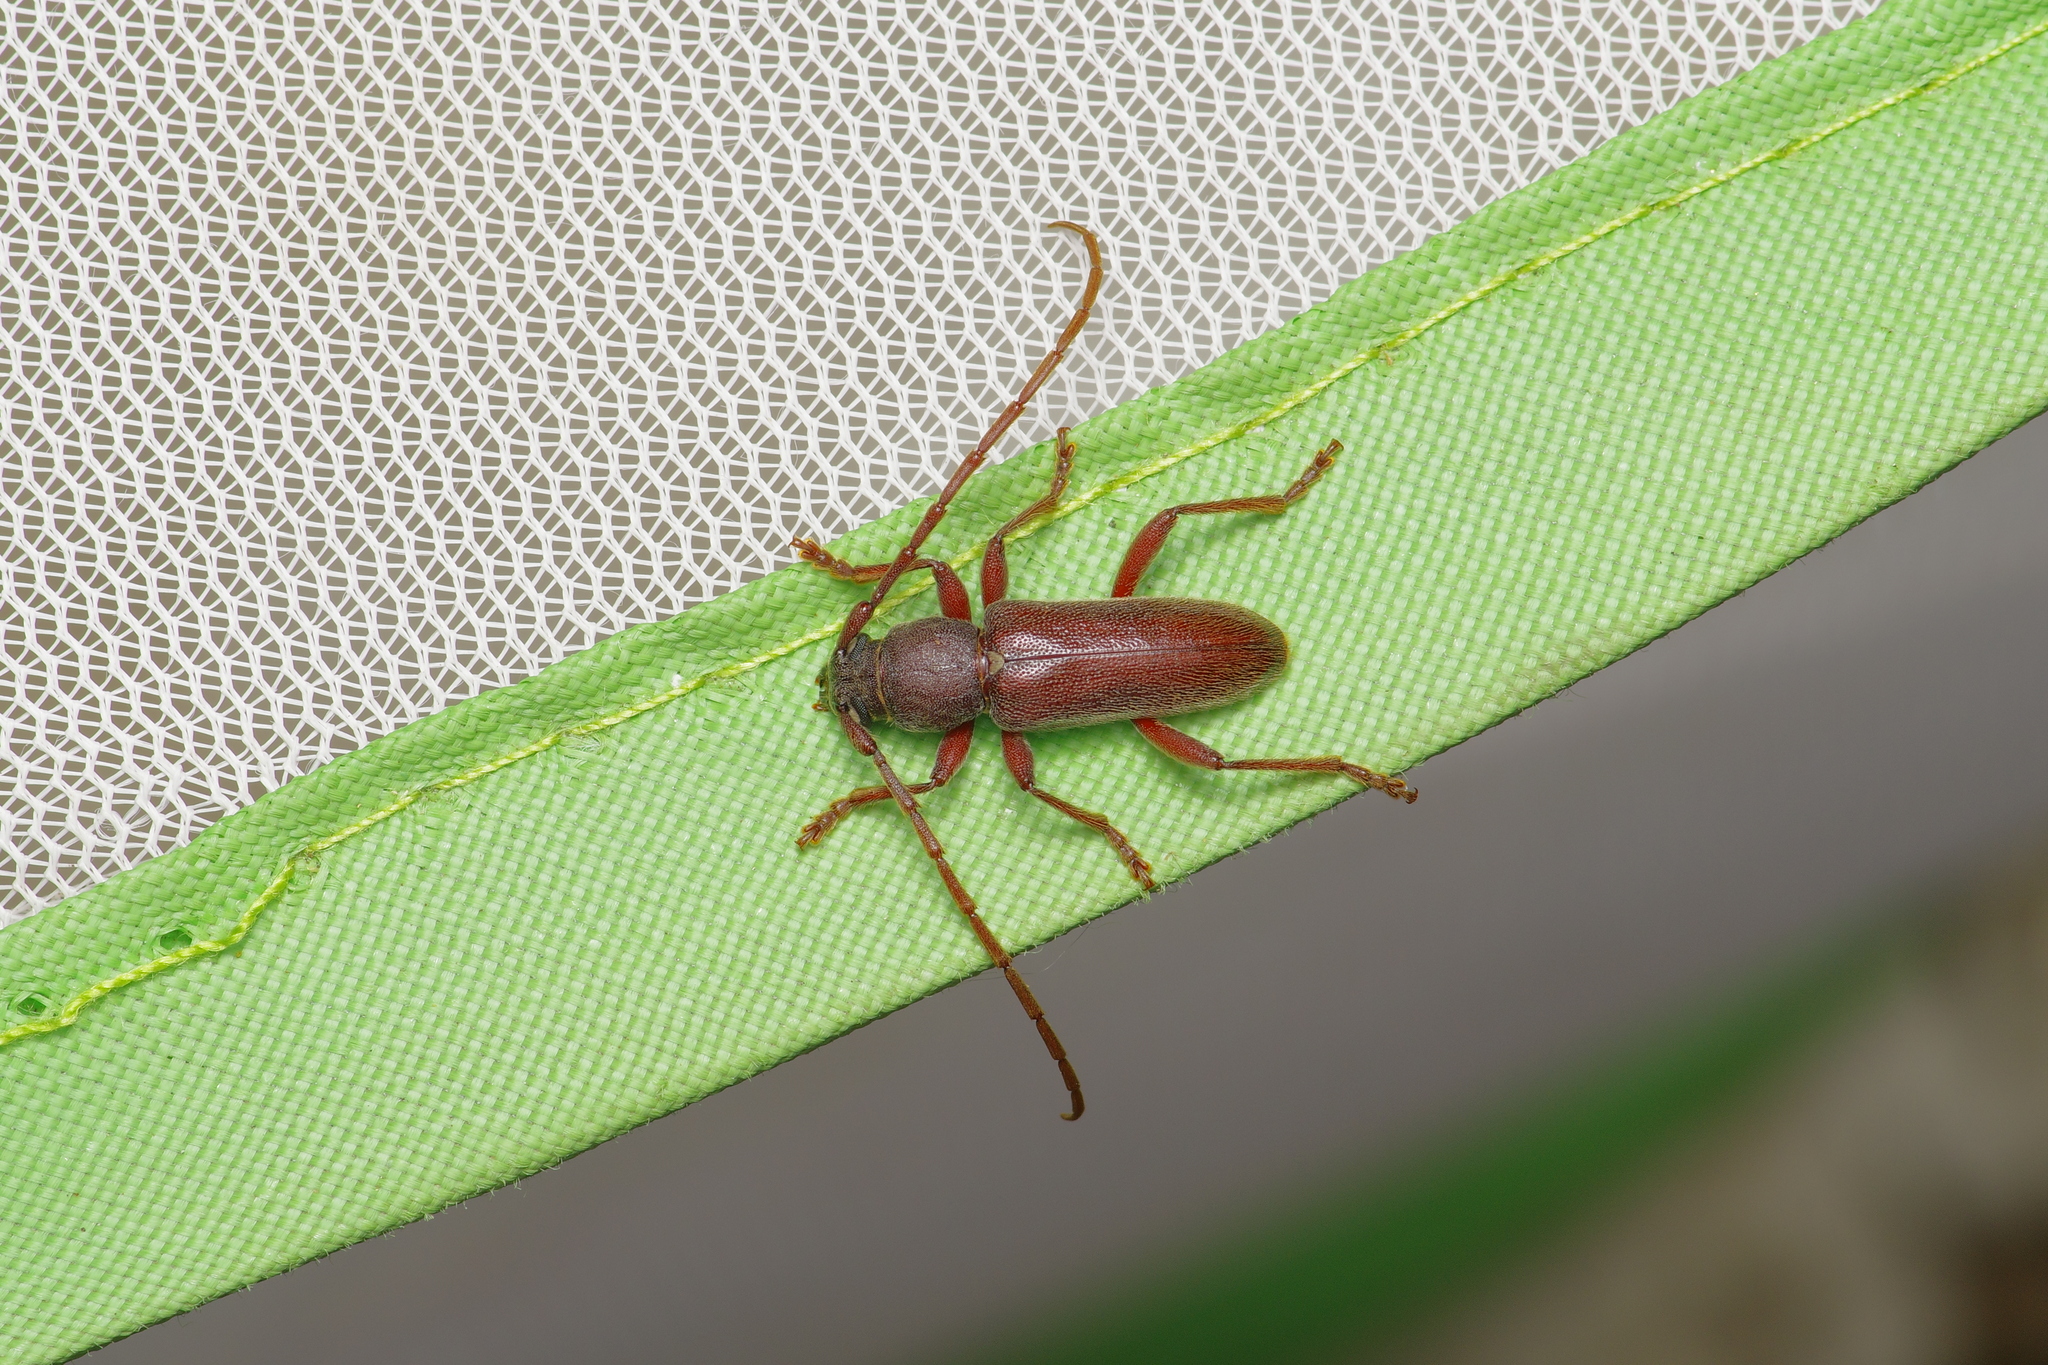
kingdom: Animalia
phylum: Arthropoda
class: Insecta
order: Coleoptera
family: Cerambycidae
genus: Anelaphus
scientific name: Anelaphus moestus
